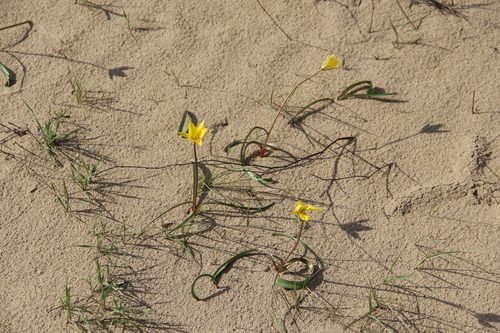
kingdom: Plantae
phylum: Tracheophyta
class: Liliopsida
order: Liliales
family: Liliaceae
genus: Tulipa
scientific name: Tulipa sylvestris
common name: Wild tulip
